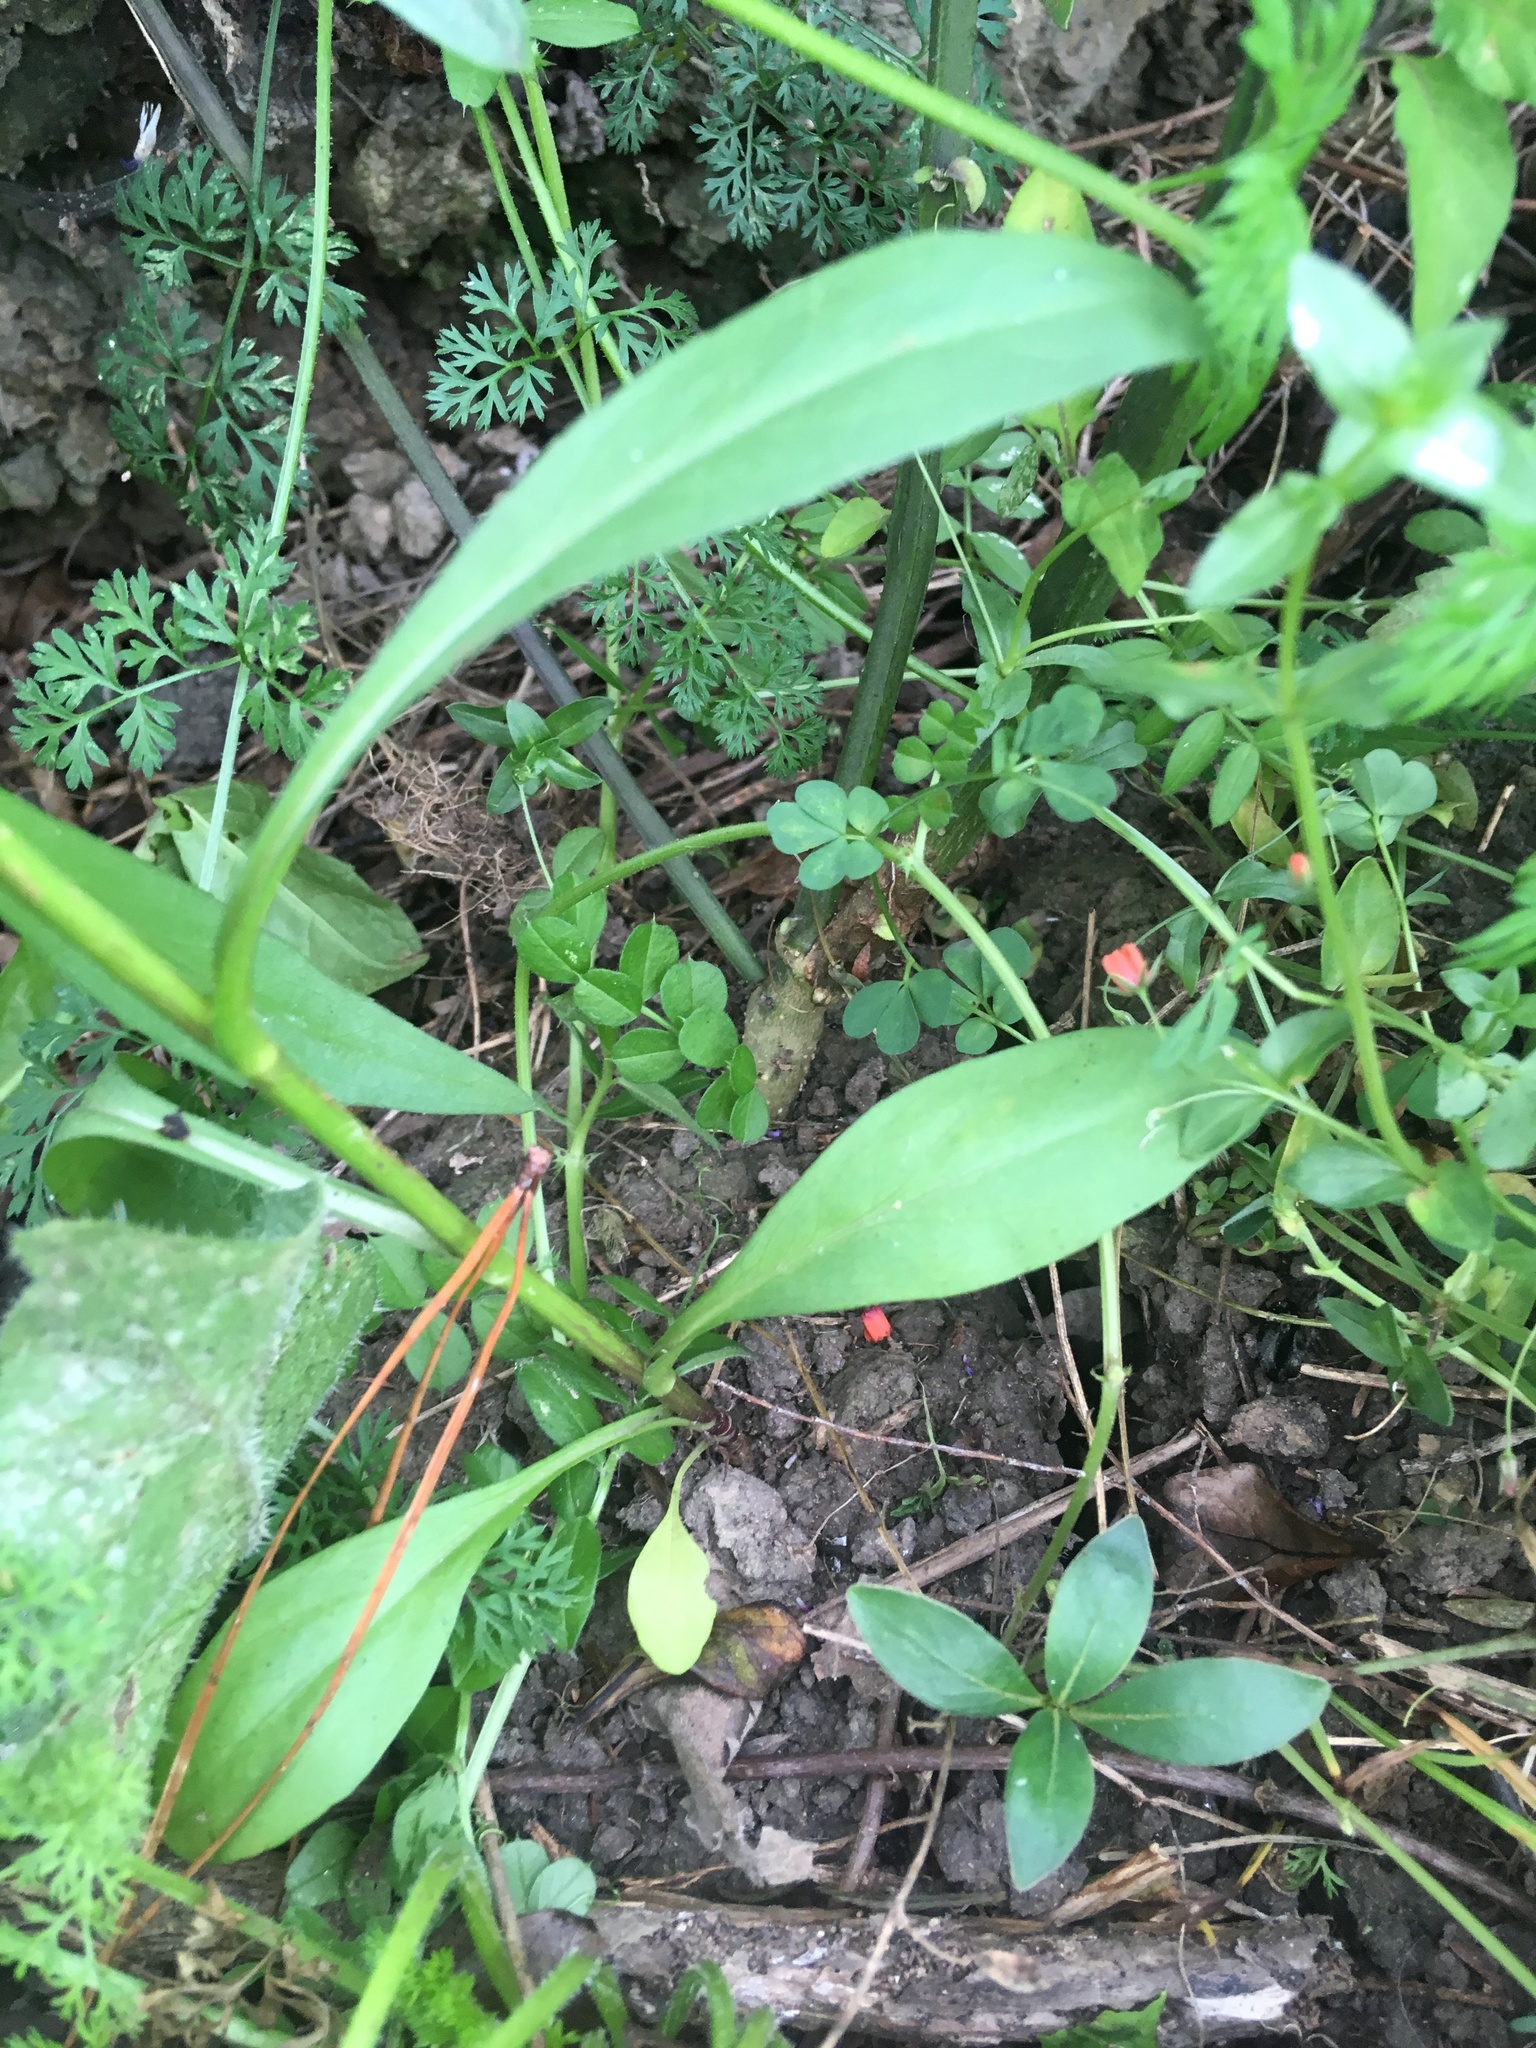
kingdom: Plantae
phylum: Tracheophyta
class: Magnoliopsida
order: Gentianales
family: Rubiaceae
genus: Coprosma
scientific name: Coprosma robusta
